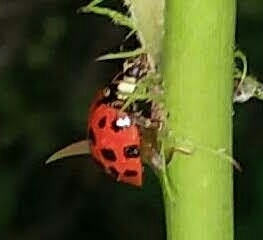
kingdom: Animalia
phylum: Arthropoda
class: Insecta
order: Coleoptera
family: Coccinellidae
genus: Harmonia
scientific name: Harmonia axyridis
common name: Harlequin ladybird
